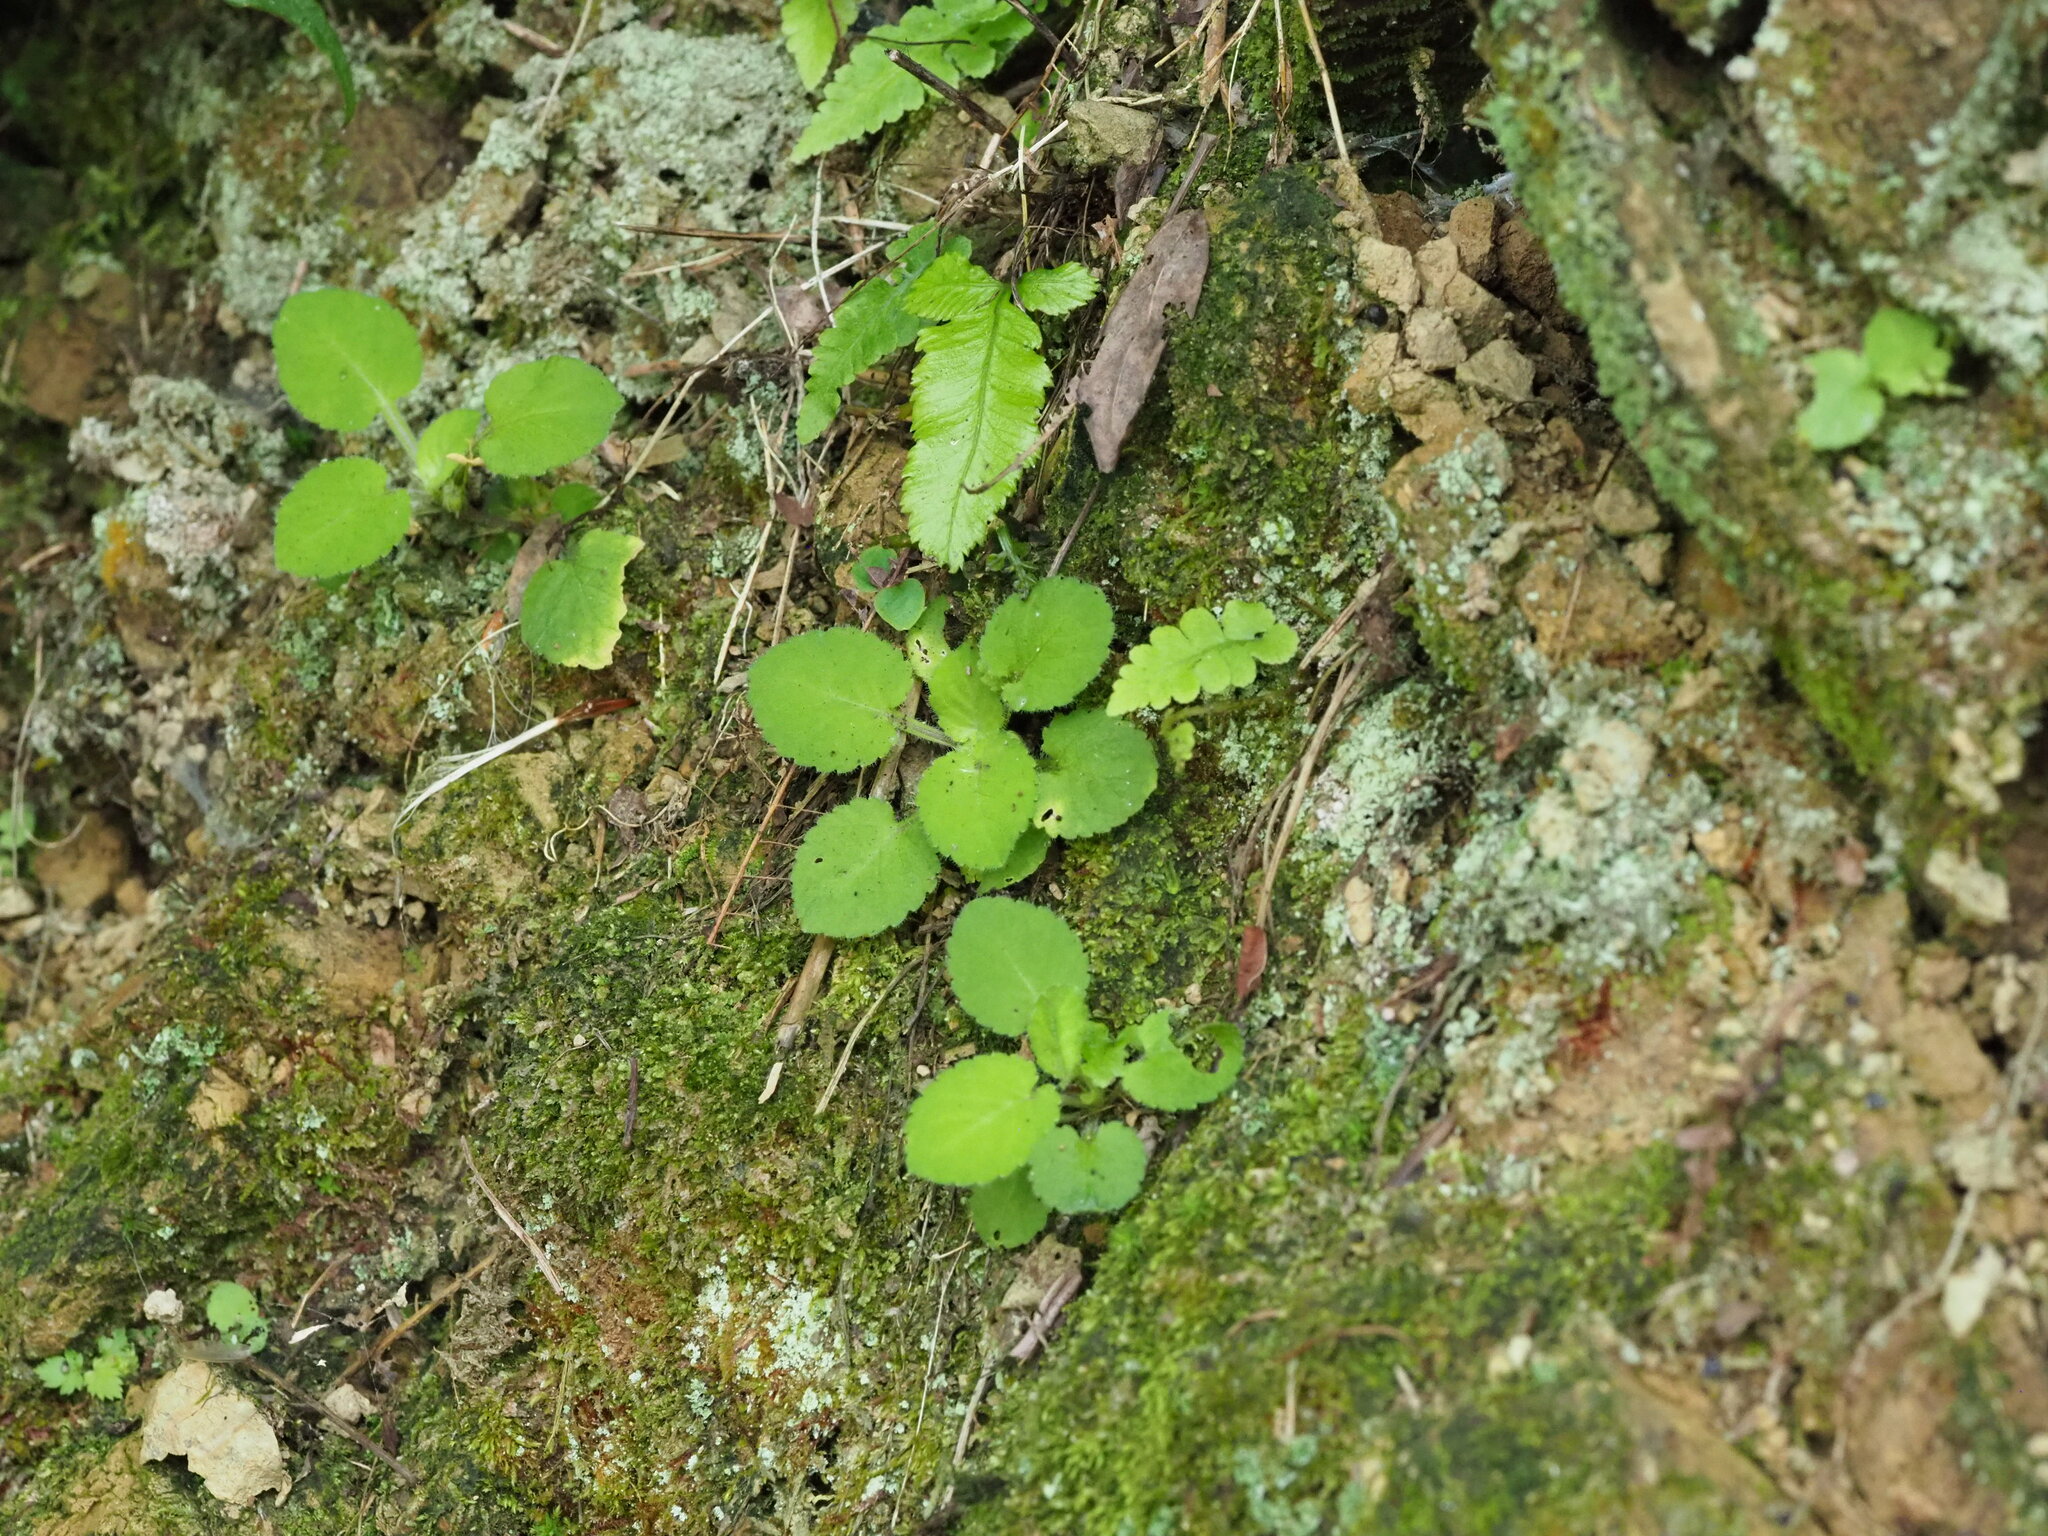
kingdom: Plantae
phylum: Tracheophyta
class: Magnoliopsida
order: Malpighiales
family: Violaceae
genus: Viola
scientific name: Viola diffusa
